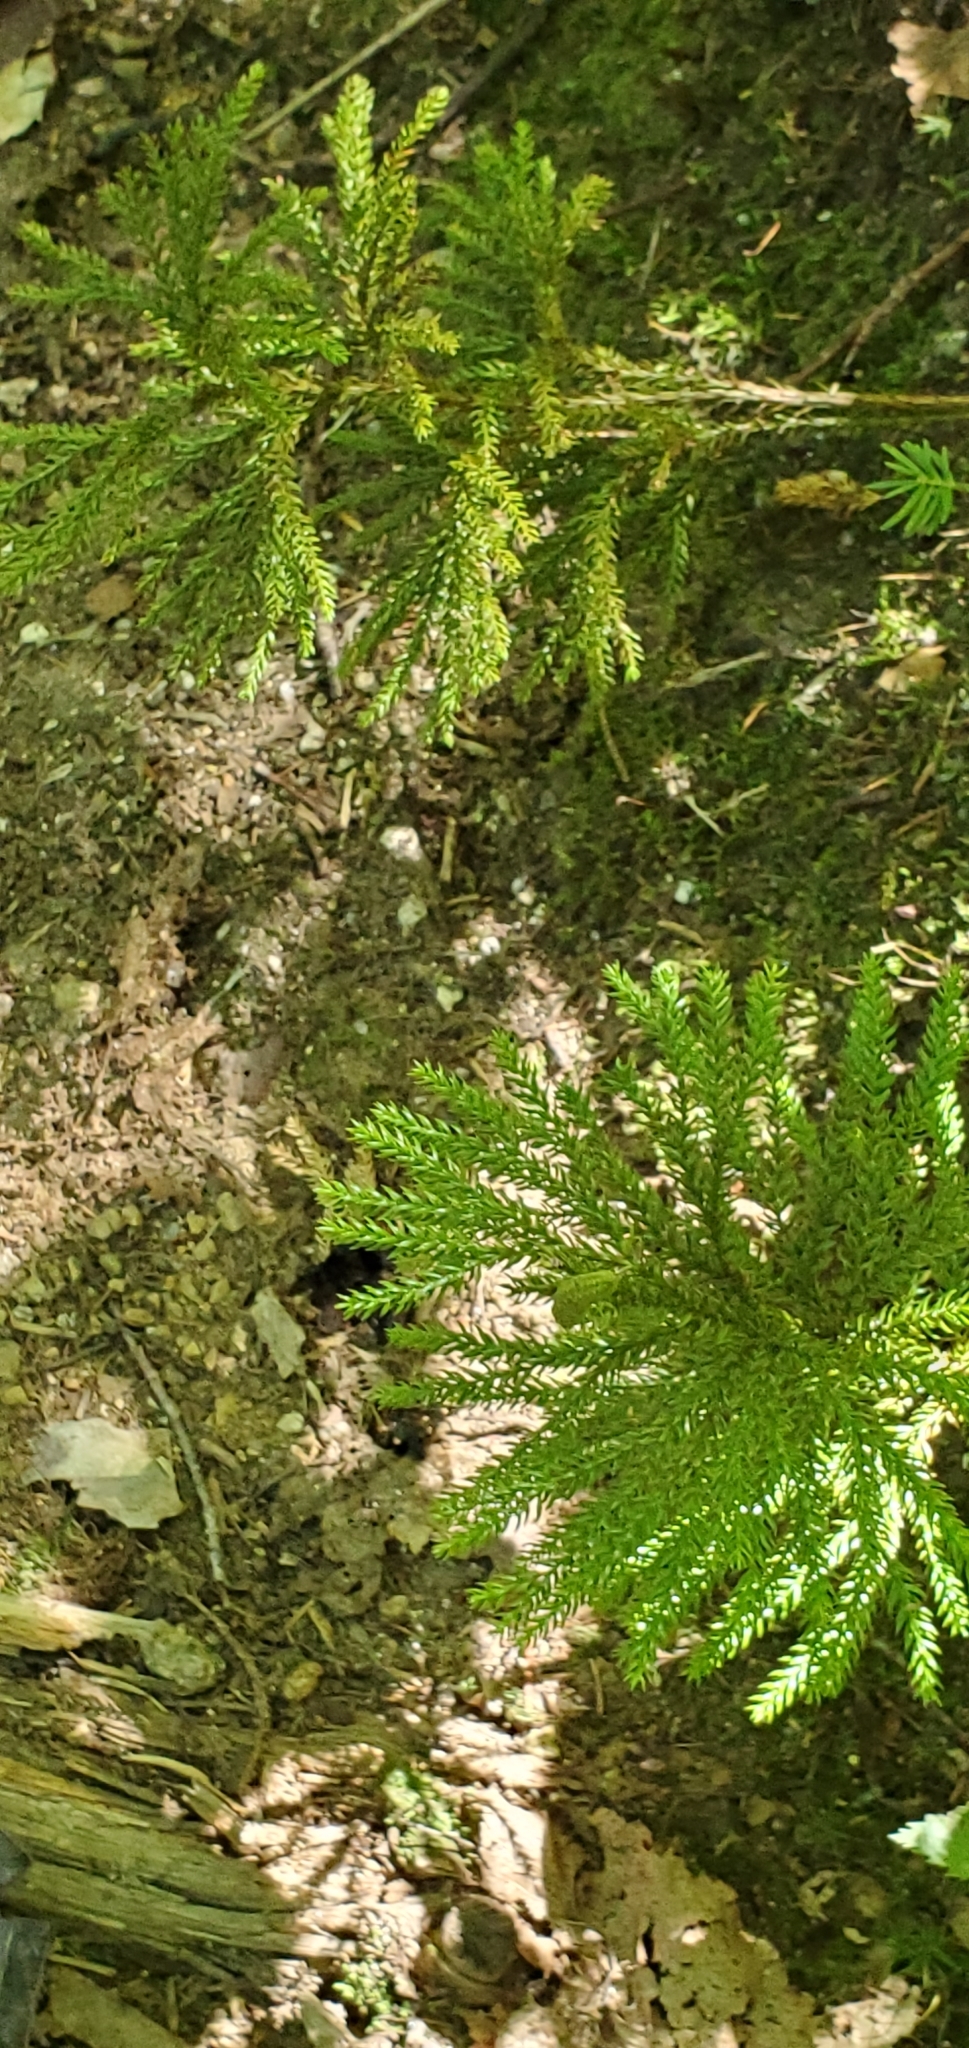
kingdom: Plantae
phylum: Tracheophyta
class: Lycopodiopsida
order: Lycopodiales
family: Lycopodiaceae
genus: Dendrolycopodium
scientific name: Dendrolycopodium dendroideum
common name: Northern tree-clubmoss
